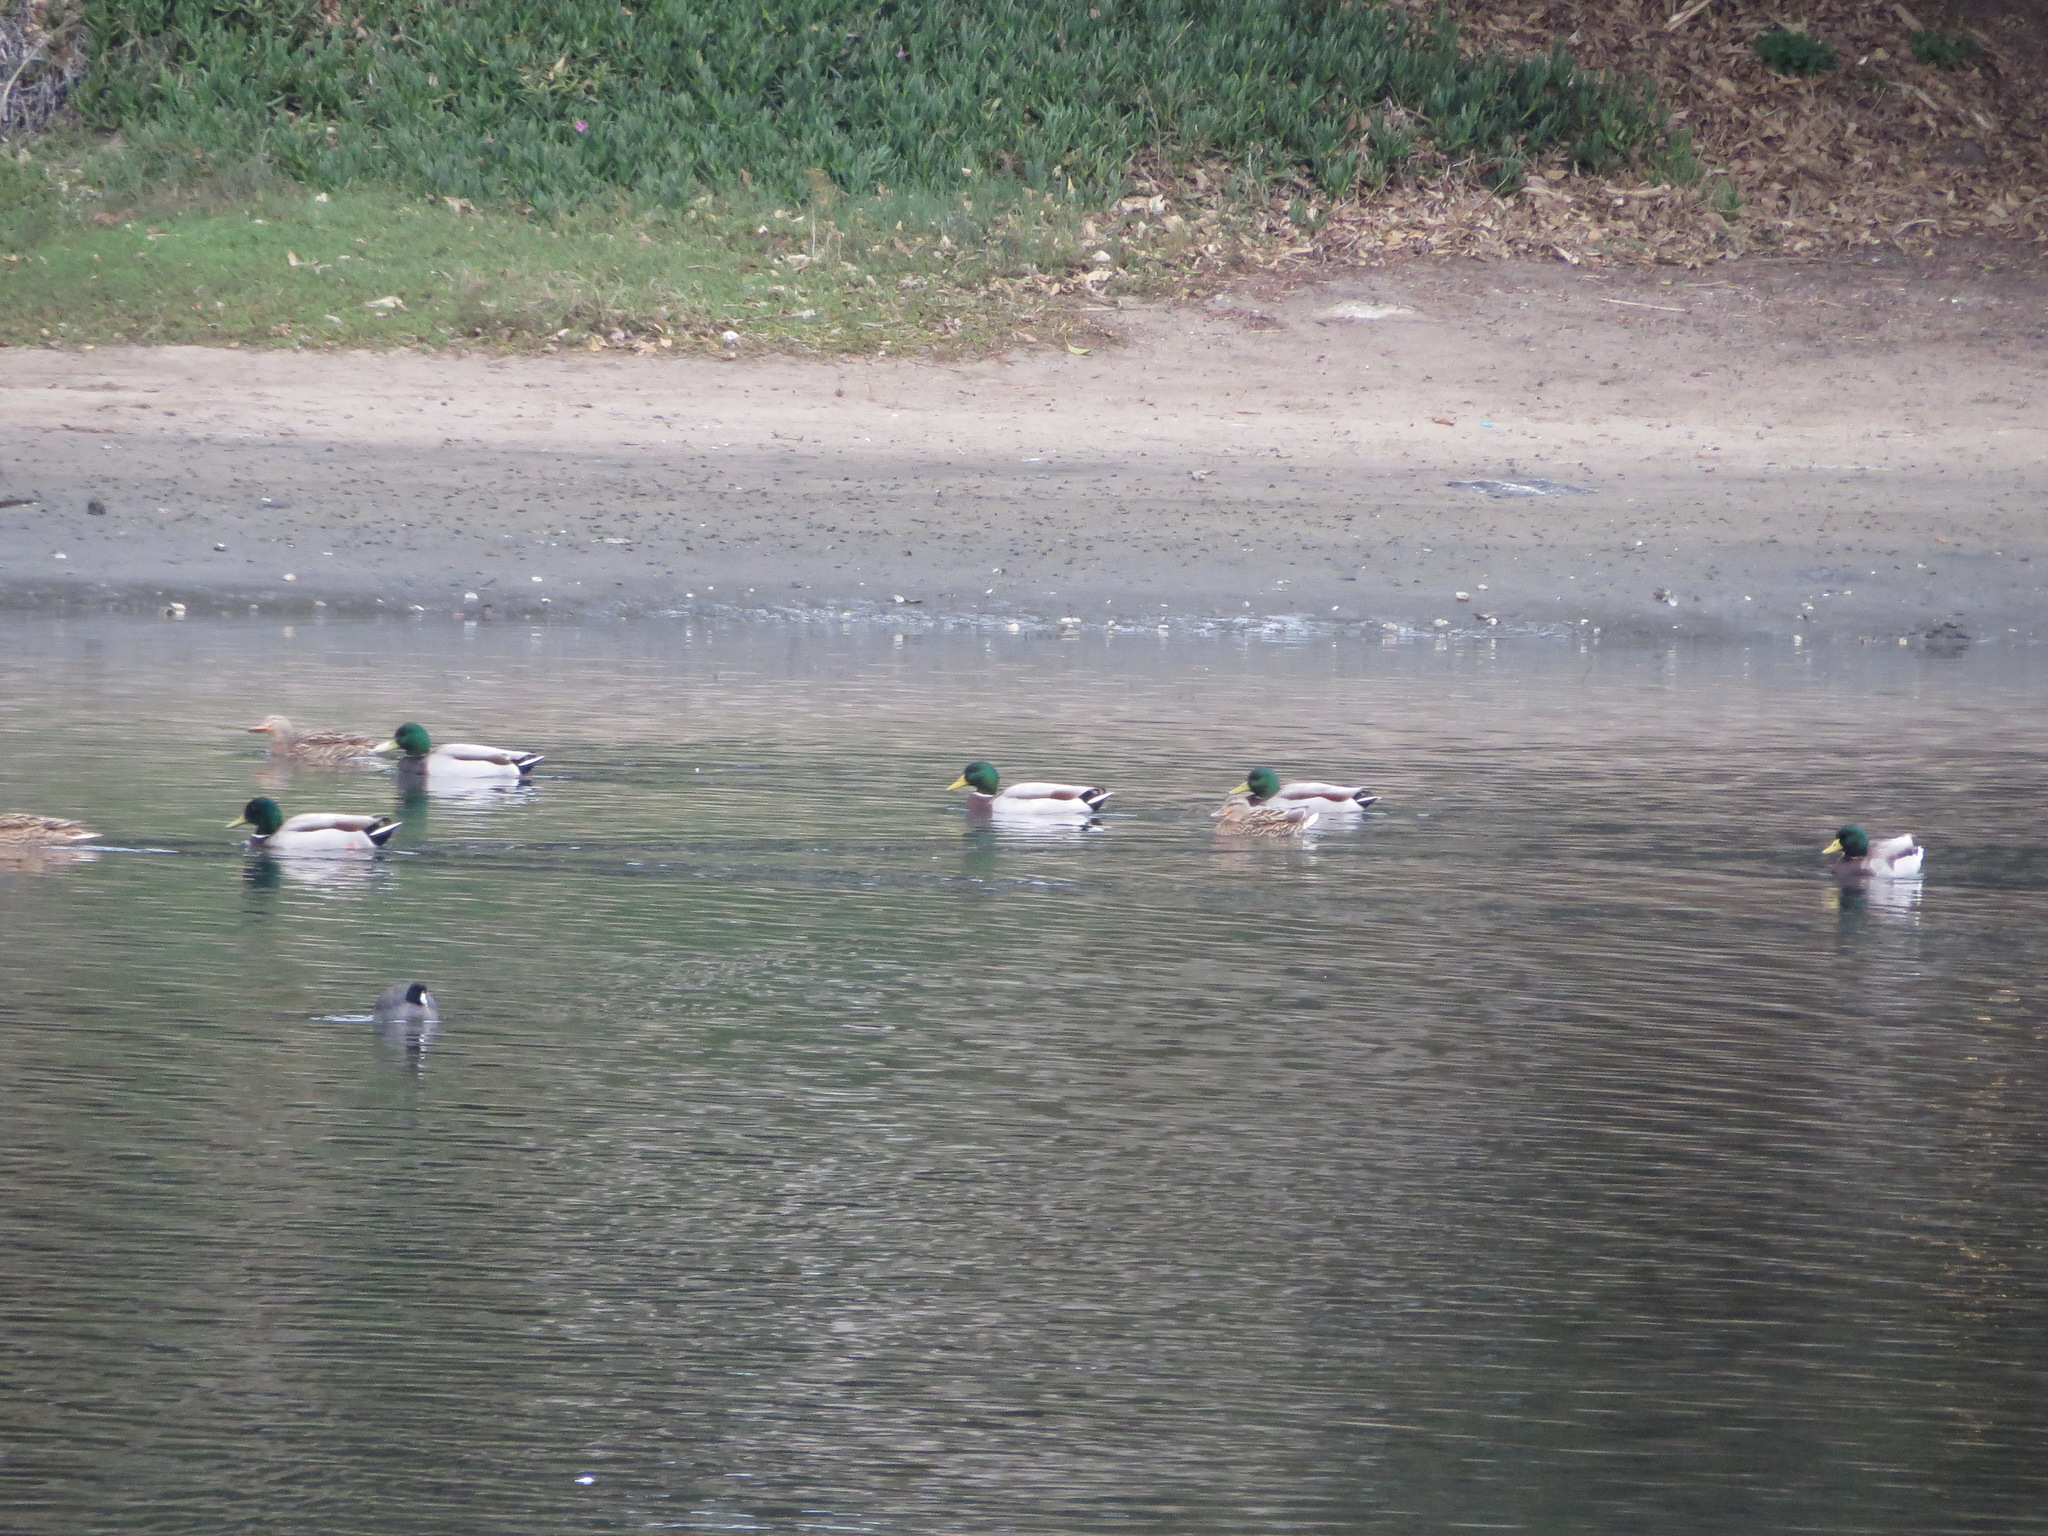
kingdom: Animalia
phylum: Chordata
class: Aves
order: Anseriformes
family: Anatidae
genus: Anas
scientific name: Anas platyrhynchos
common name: Mallard
